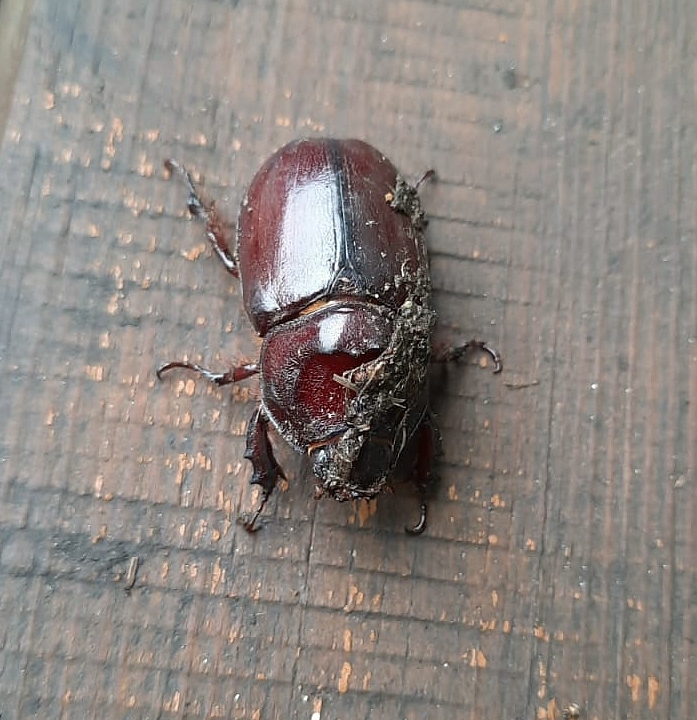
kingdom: Animalia
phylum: Arthropoda
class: Insecta
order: Coleoptera
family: Scarabaeidae
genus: Oryctes
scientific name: Oryctes nasicornis
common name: European rhinoceros beetle
